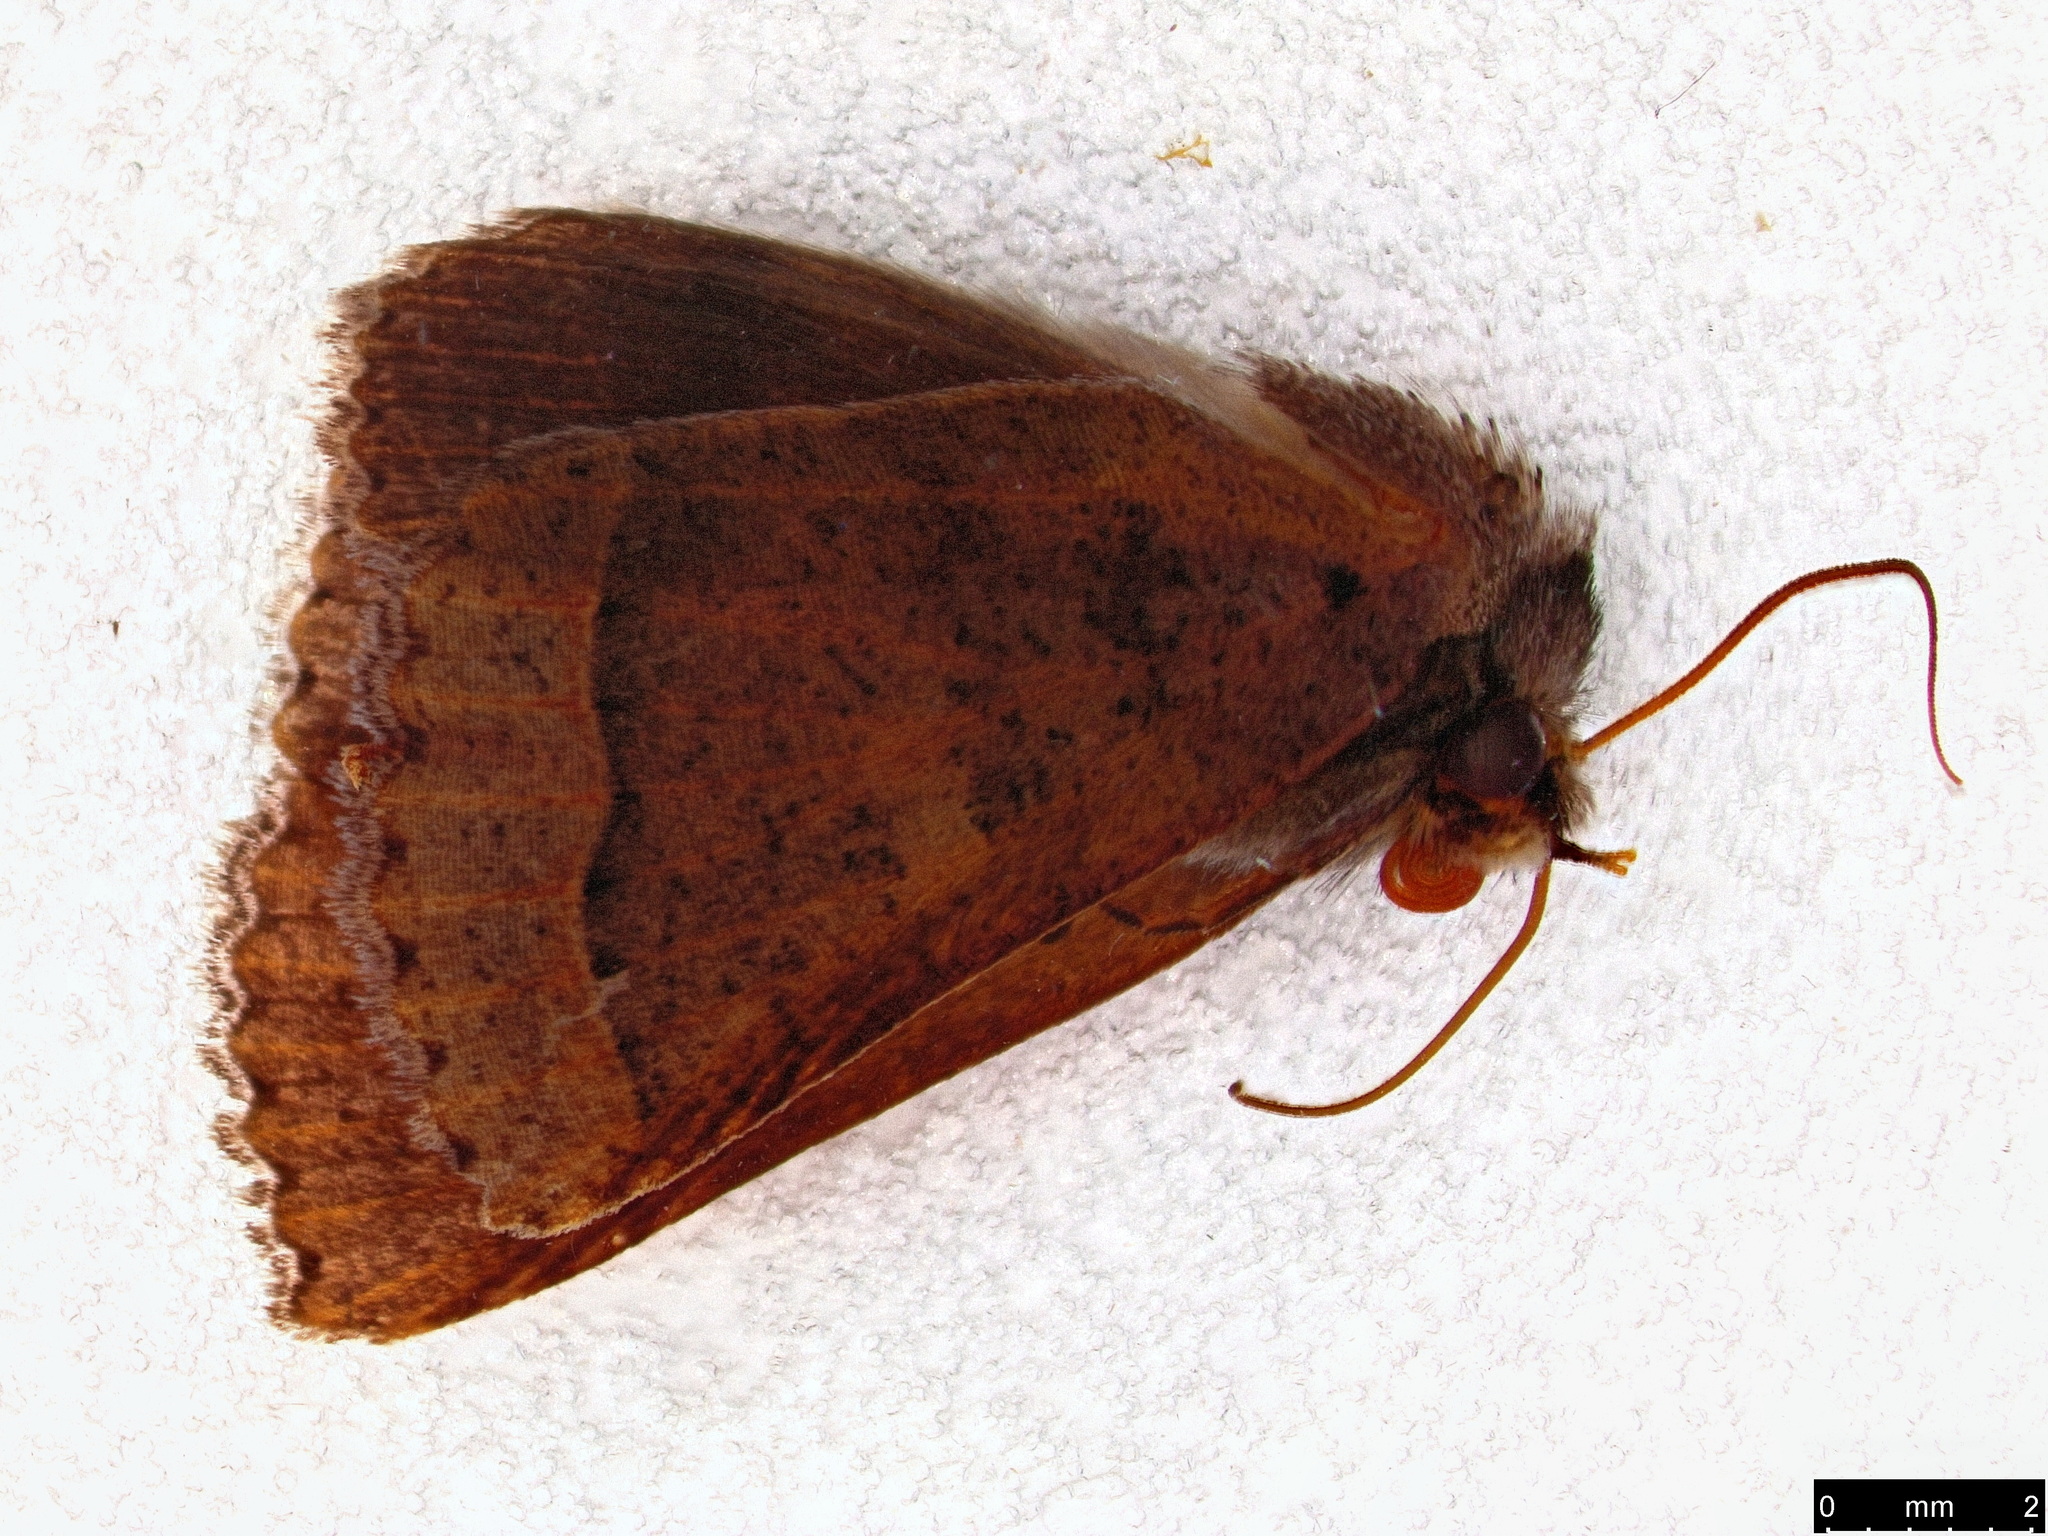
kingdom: Animalia
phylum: Arthropoda
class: Insecta
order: Lepidoptera
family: Erebidae
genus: Pantydia
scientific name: Pantydia sparsa
